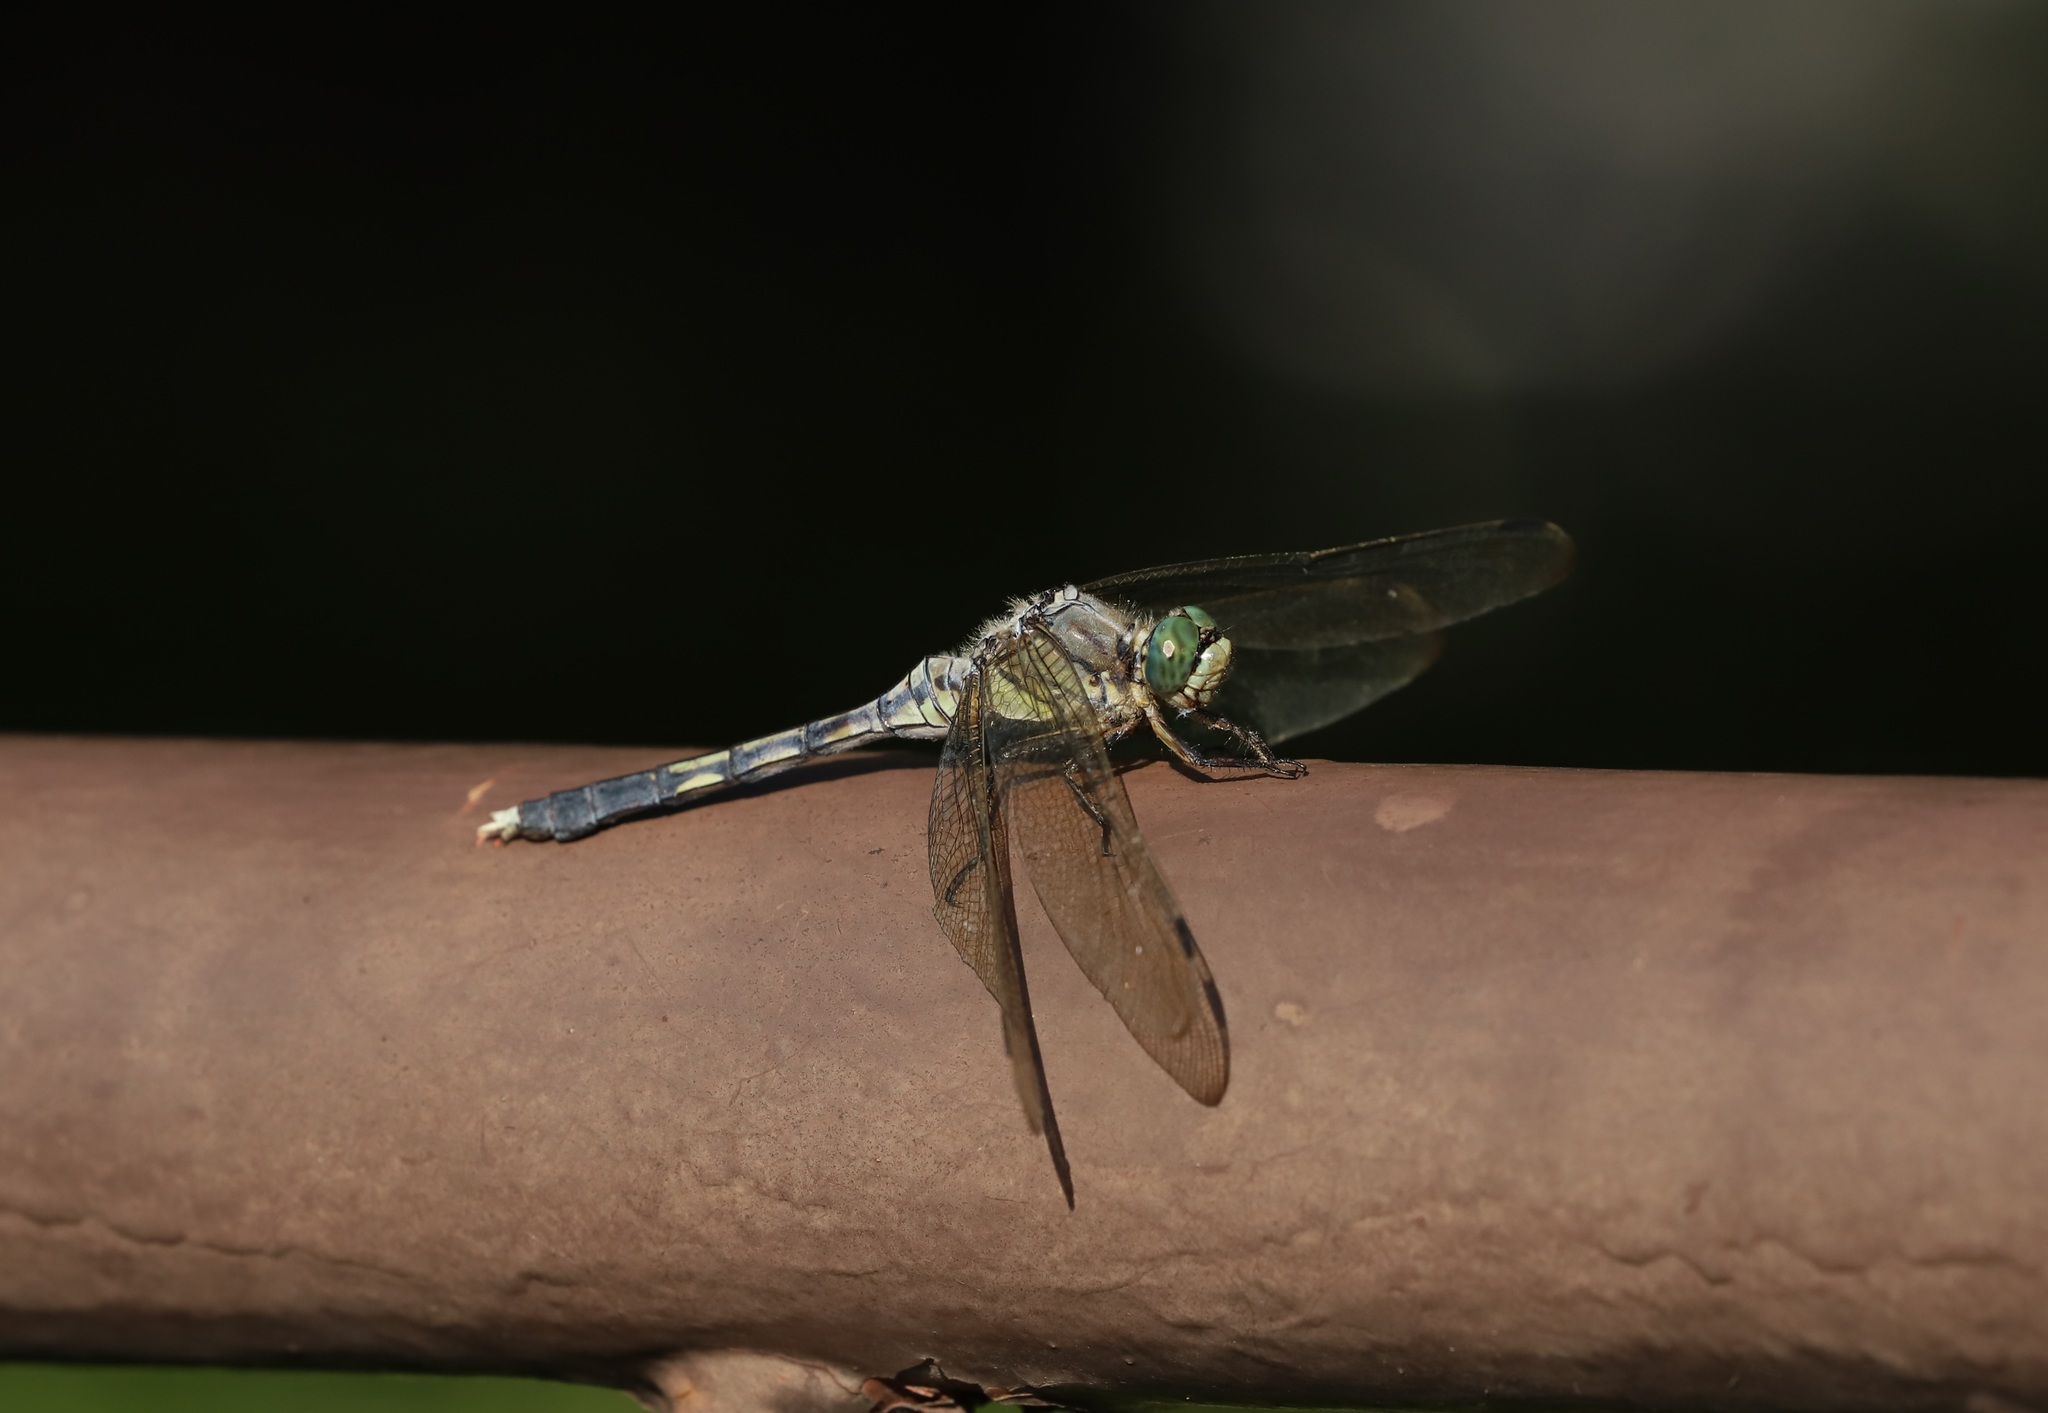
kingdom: Animalia
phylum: Arthropoda
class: Insecta
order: Odonata
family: Libellulidae
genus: Orthetrum
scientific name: Orthetrum albistylum
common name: White-tailed skimmer
